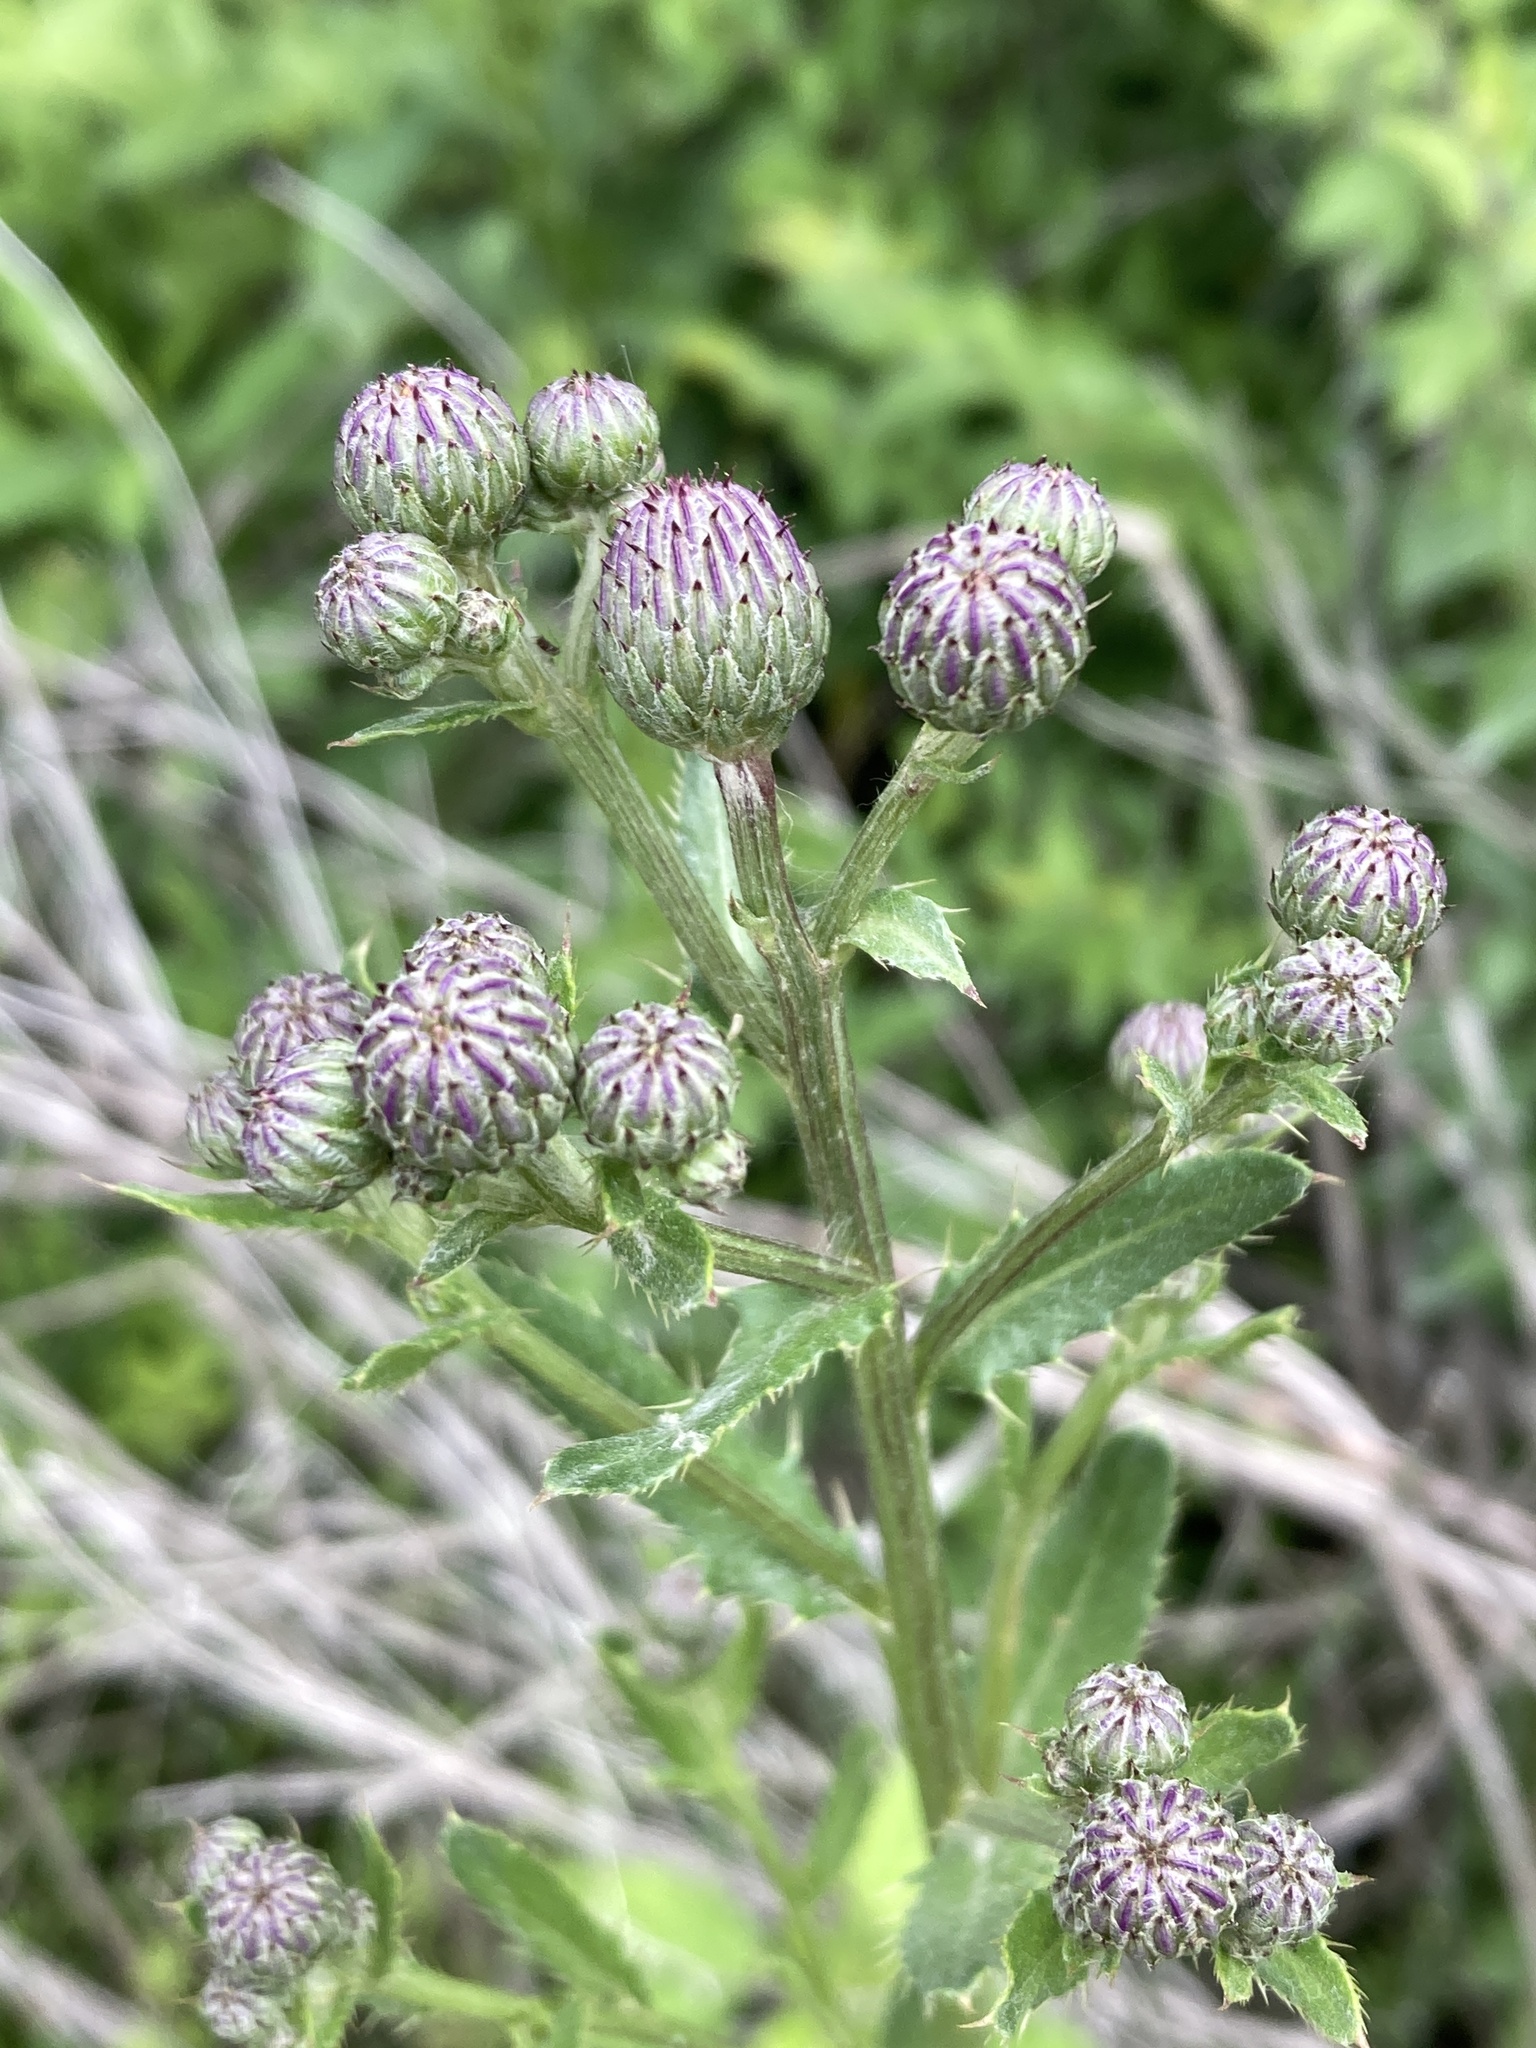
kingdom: Plantae
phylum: Tracheophyta
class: Magnoliopsida
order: Asterales
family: Asteraceae
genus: Cirsium
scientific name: Cirsium arvense
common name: Creeping thistle
